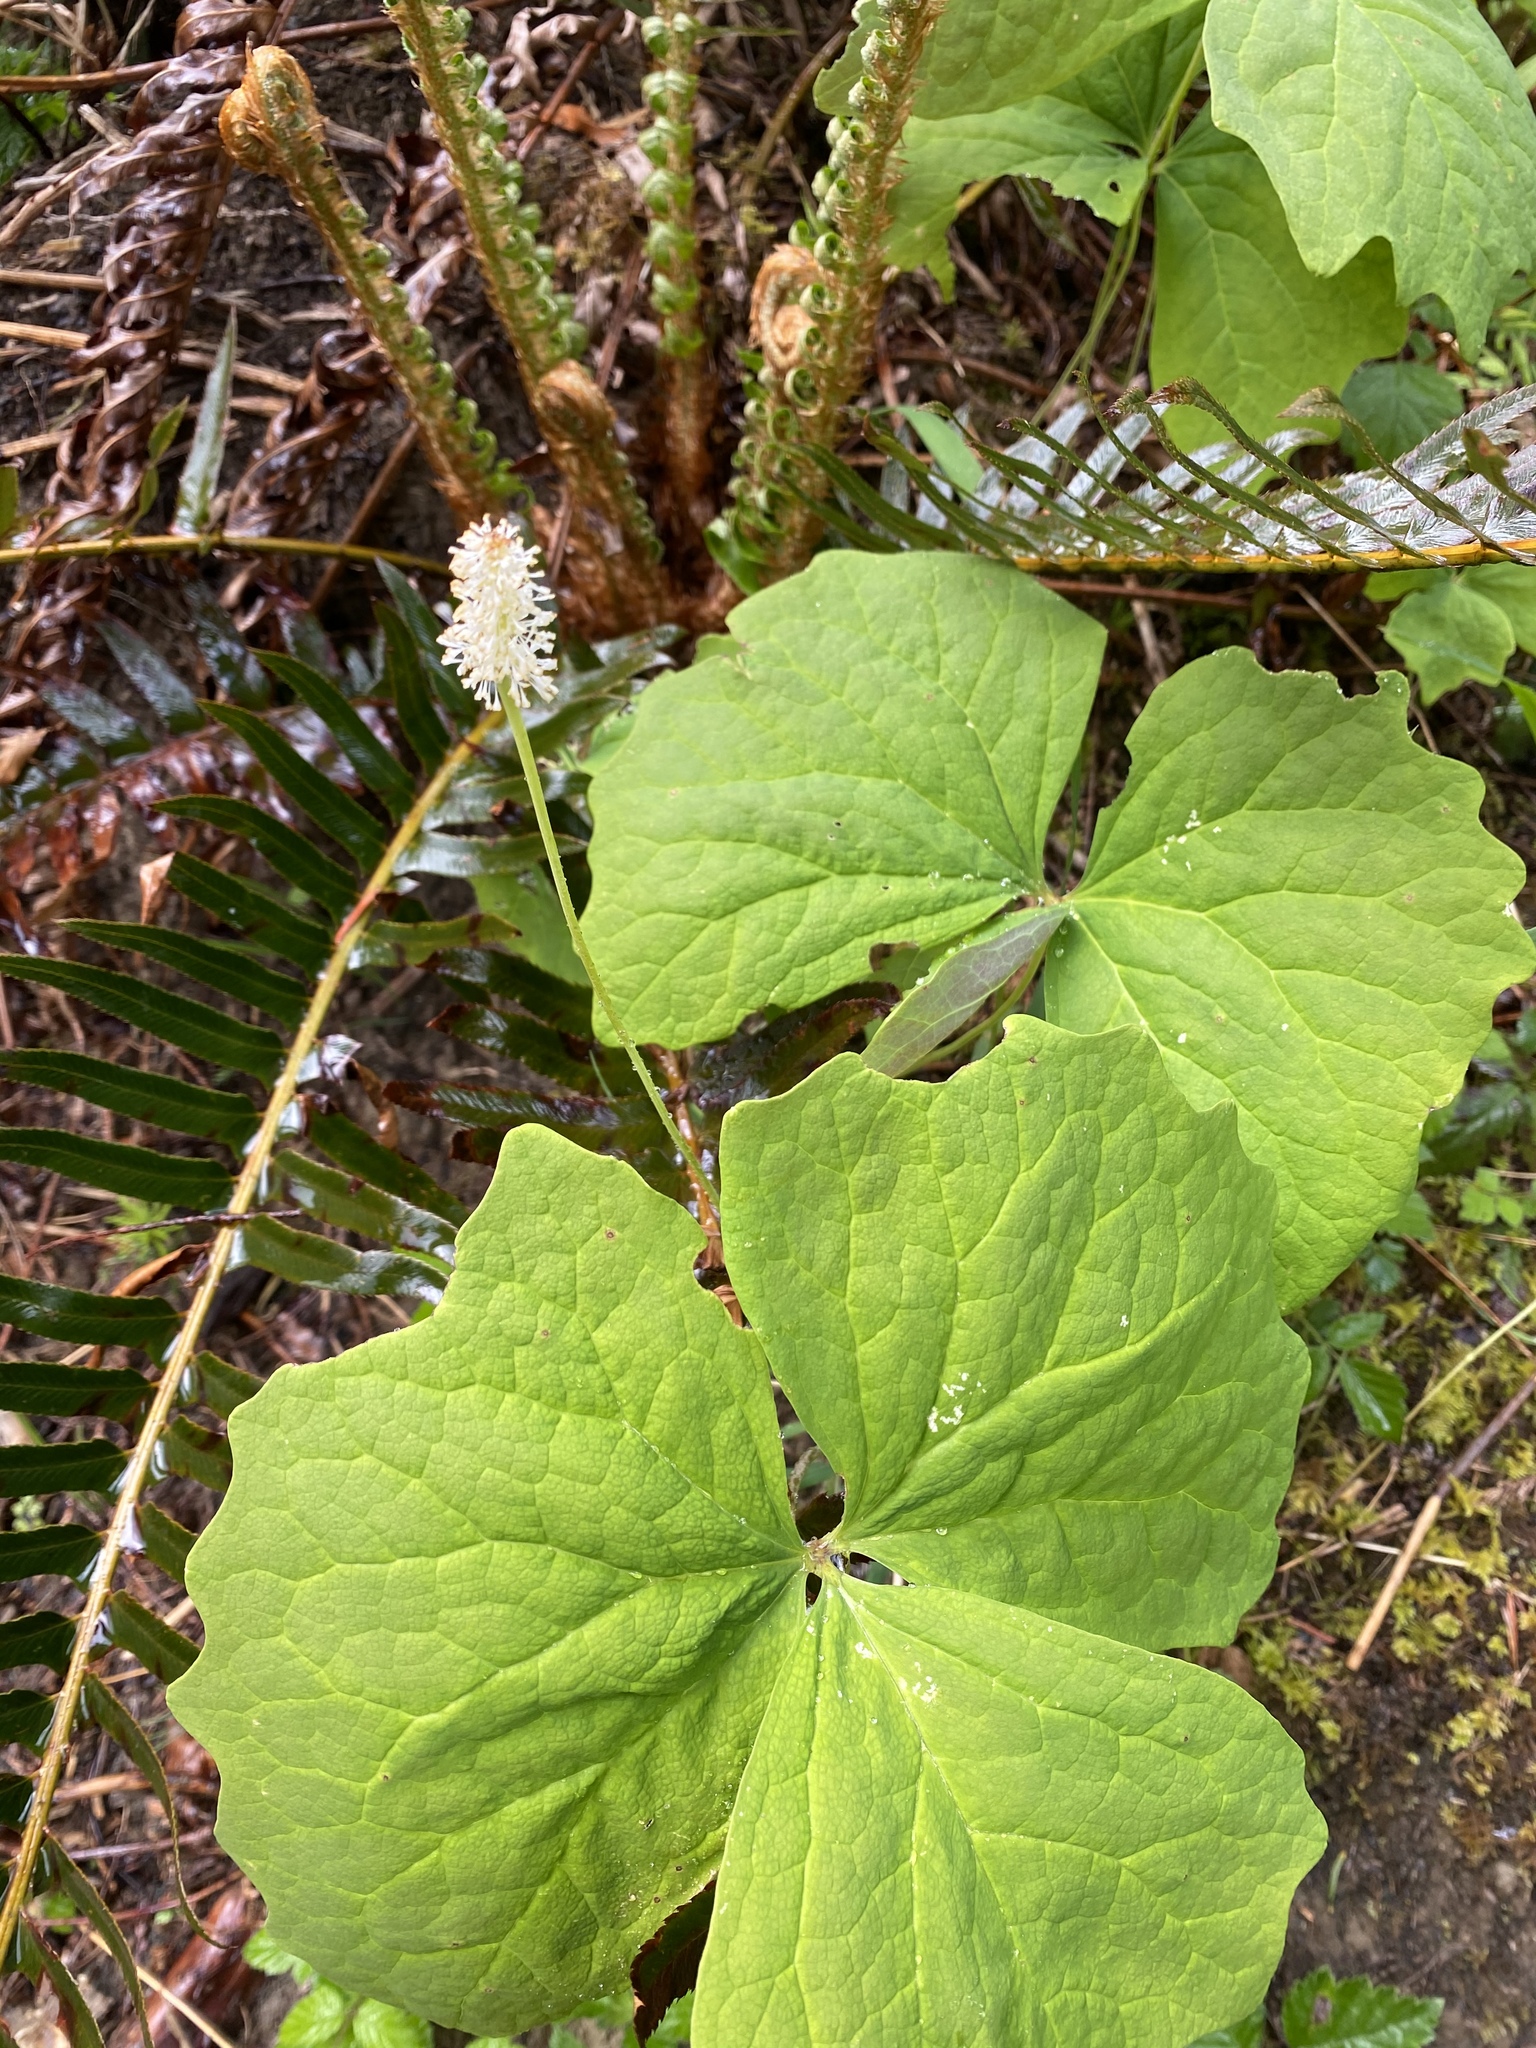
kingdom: Plantae
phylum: Tracheophyta
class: Magnoliopsida
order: Ranunculales
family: Berberidaceae
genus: Achlys
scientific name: Achlys triphylla
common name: Vanilla-leaf
